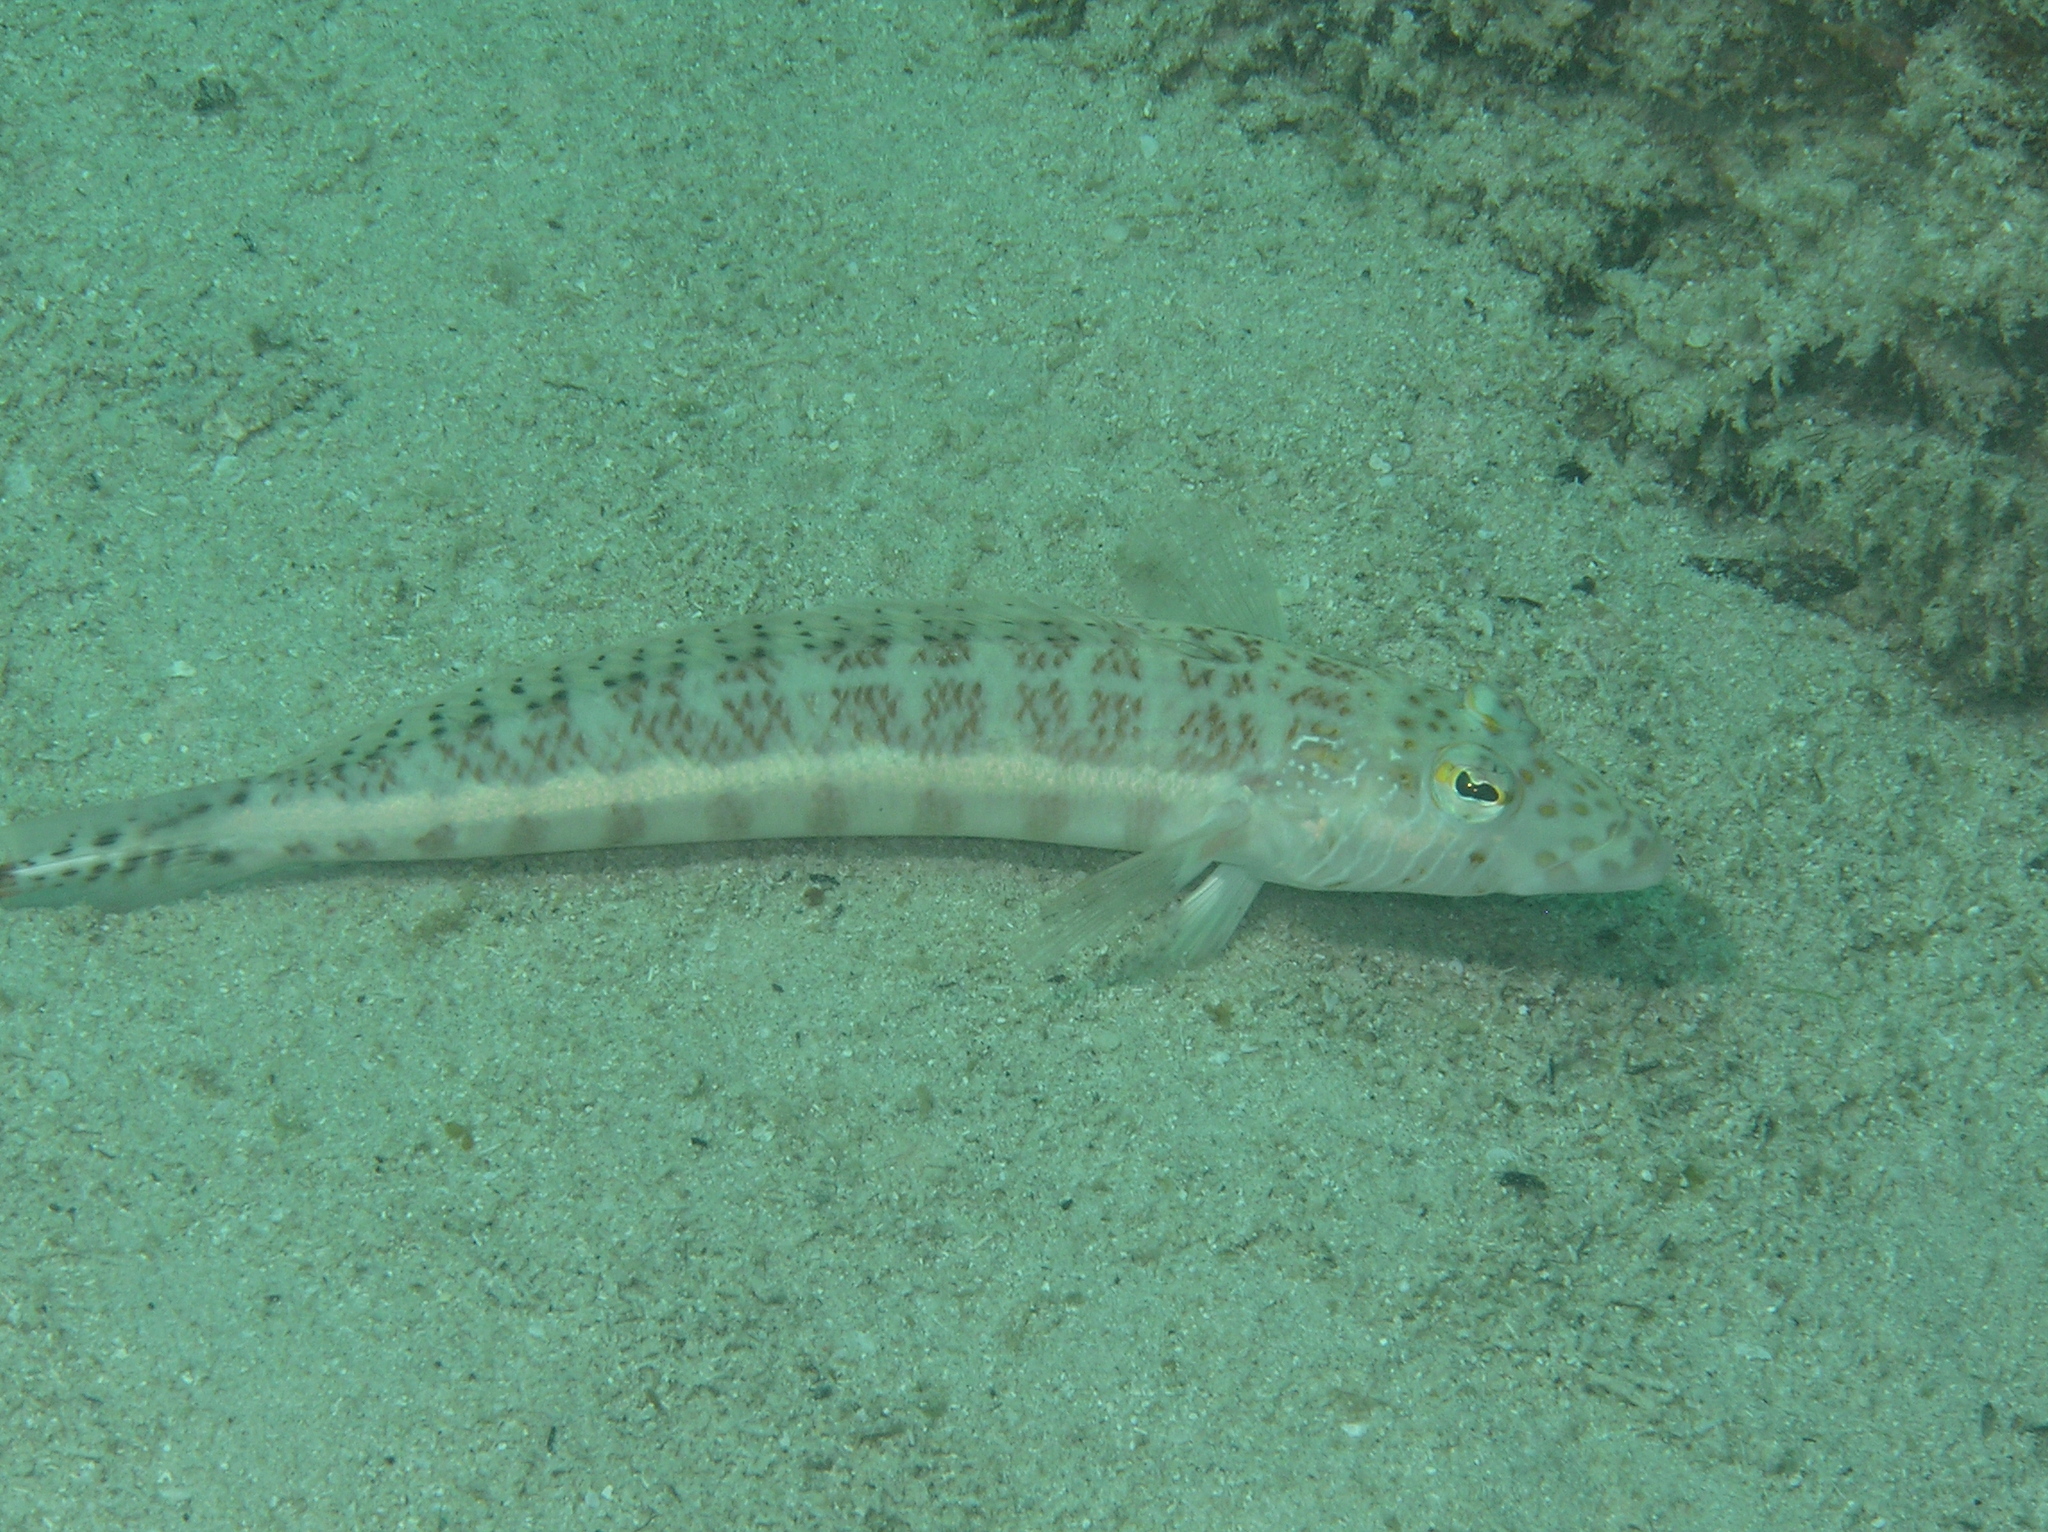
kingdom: Animalia
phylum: Chordata
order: Perciformes
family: Pinguipedidae
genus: Parapercis
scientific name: Parapercis xanthozona
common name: Yellowbar sandperch
